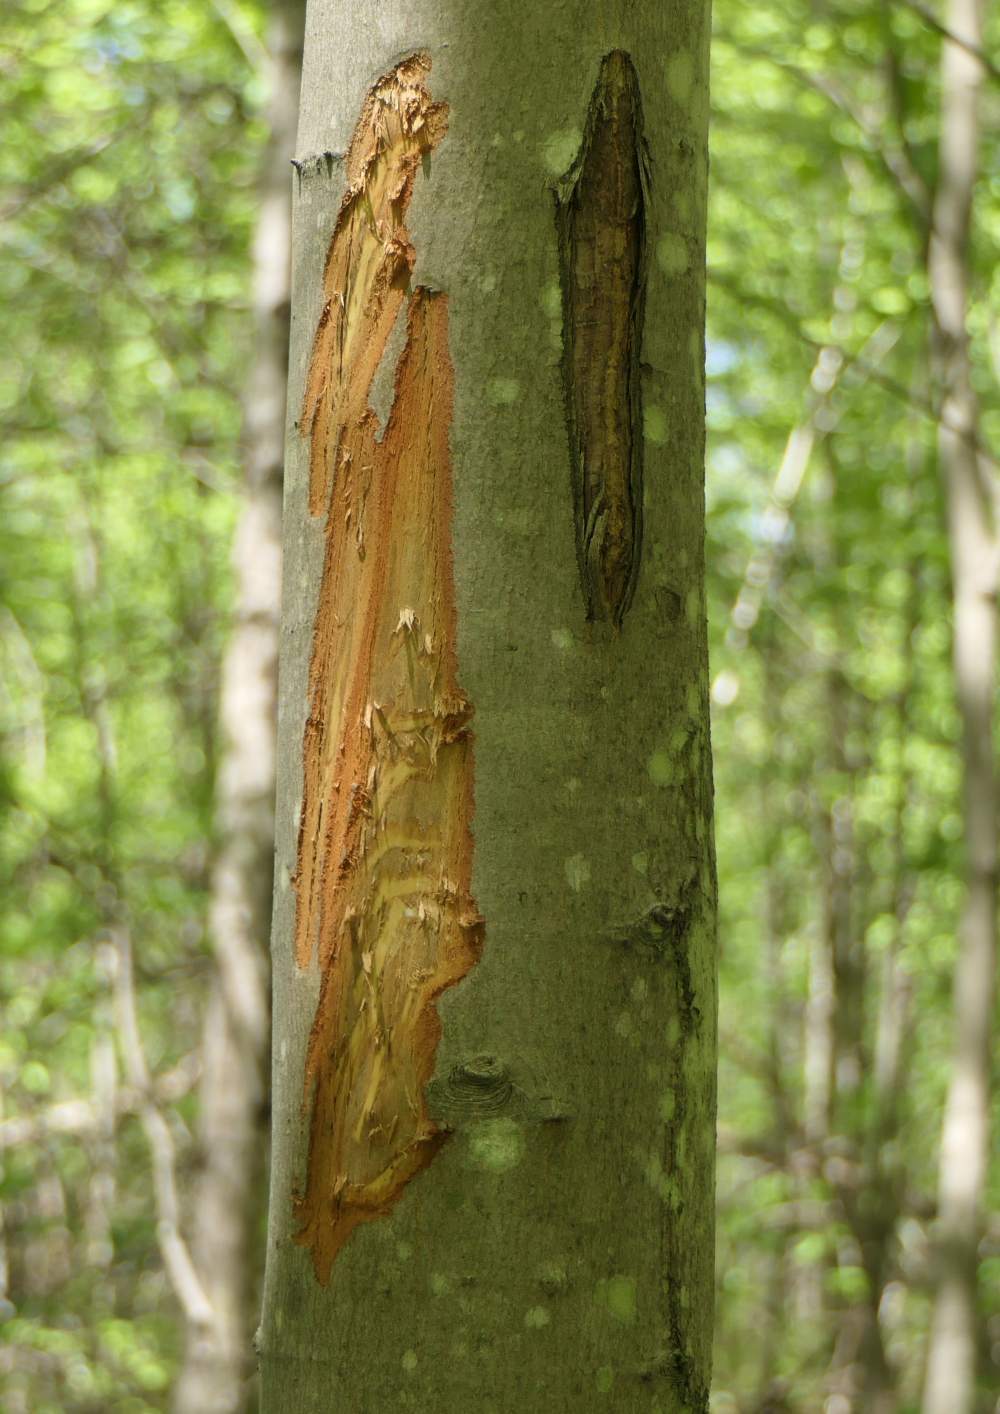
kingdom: Animalia
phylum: Chordata
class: Mammalia
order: Artiodactyla
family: Cervidae
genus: Alces
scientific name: Alces americanus
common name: Moose
